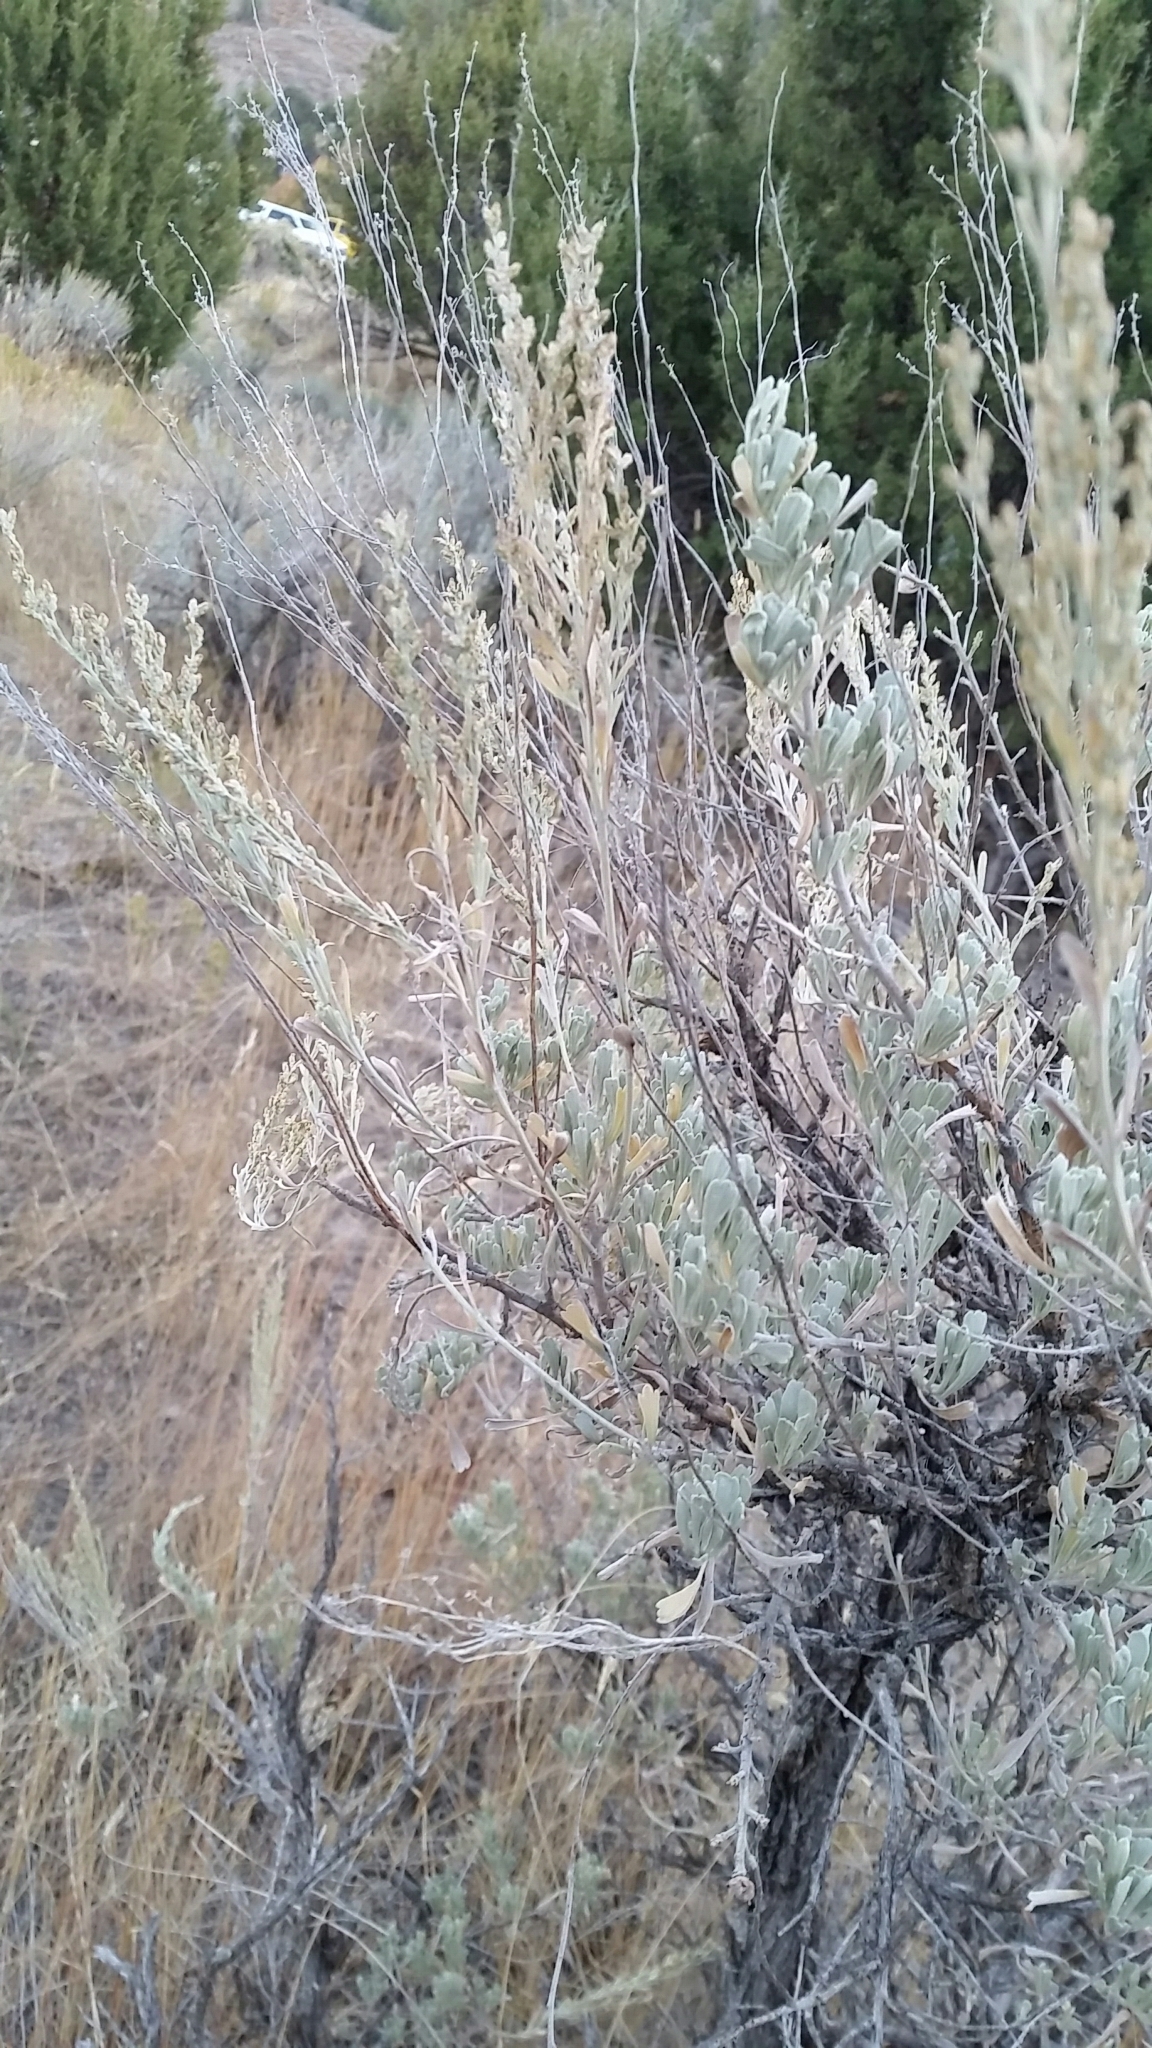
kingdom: Plantae
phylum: Tracheophyta
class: Magnoliopsida
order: Asterales
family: Asteraceae
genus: Artemisia
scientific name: Artemisia tridentata
